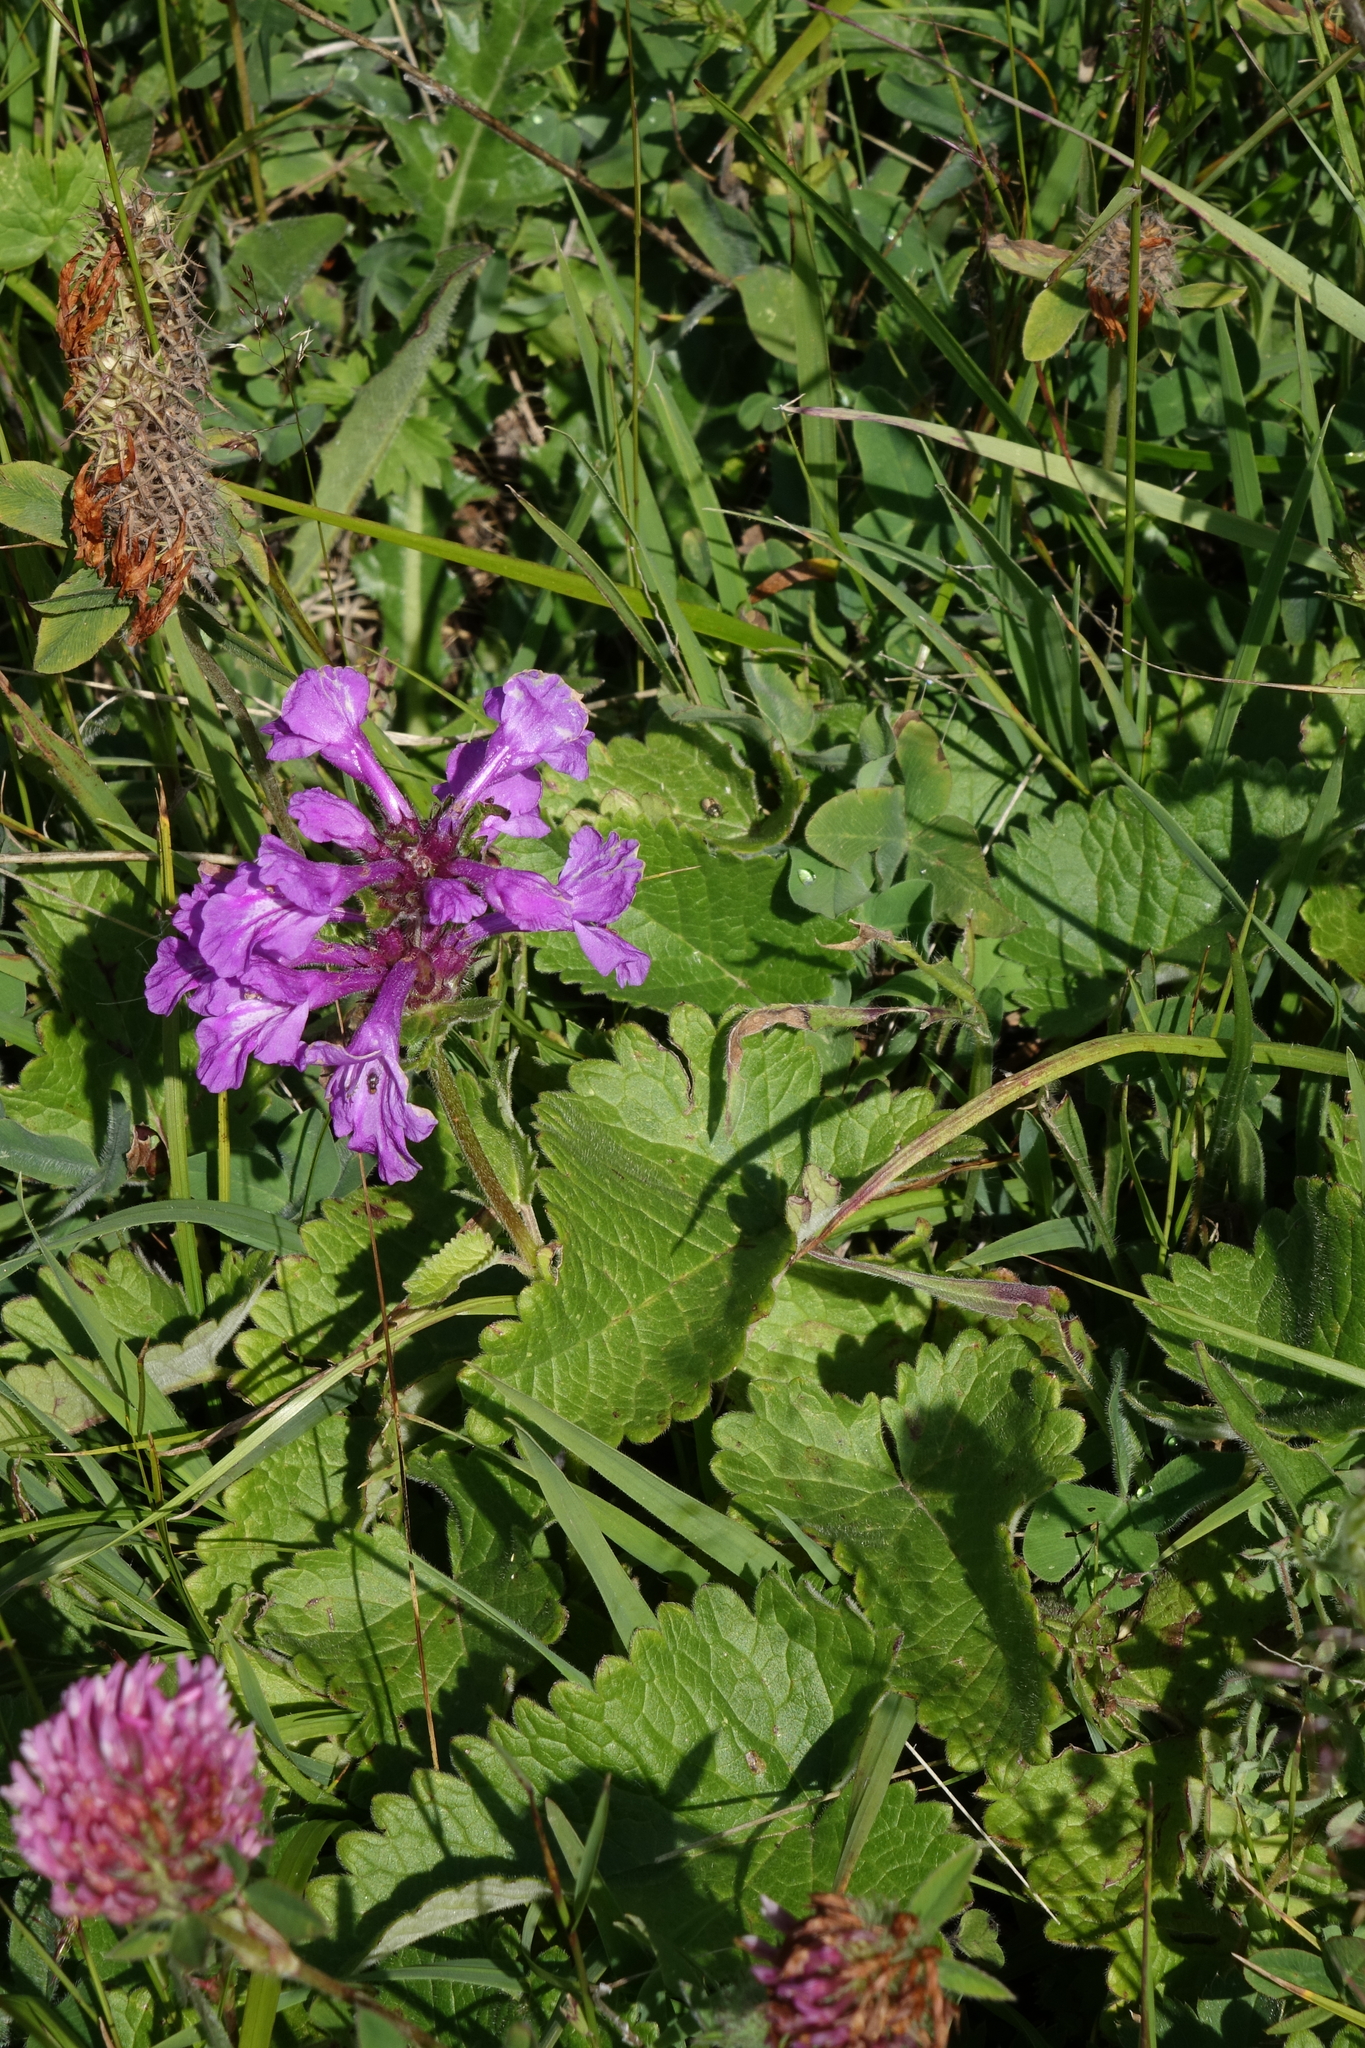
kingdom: Plantae
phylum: Tracheophyta
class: Magnoliopsida
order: Lamiales
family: Lamiaceae
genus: Betonica
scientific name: Betonica macrantha
